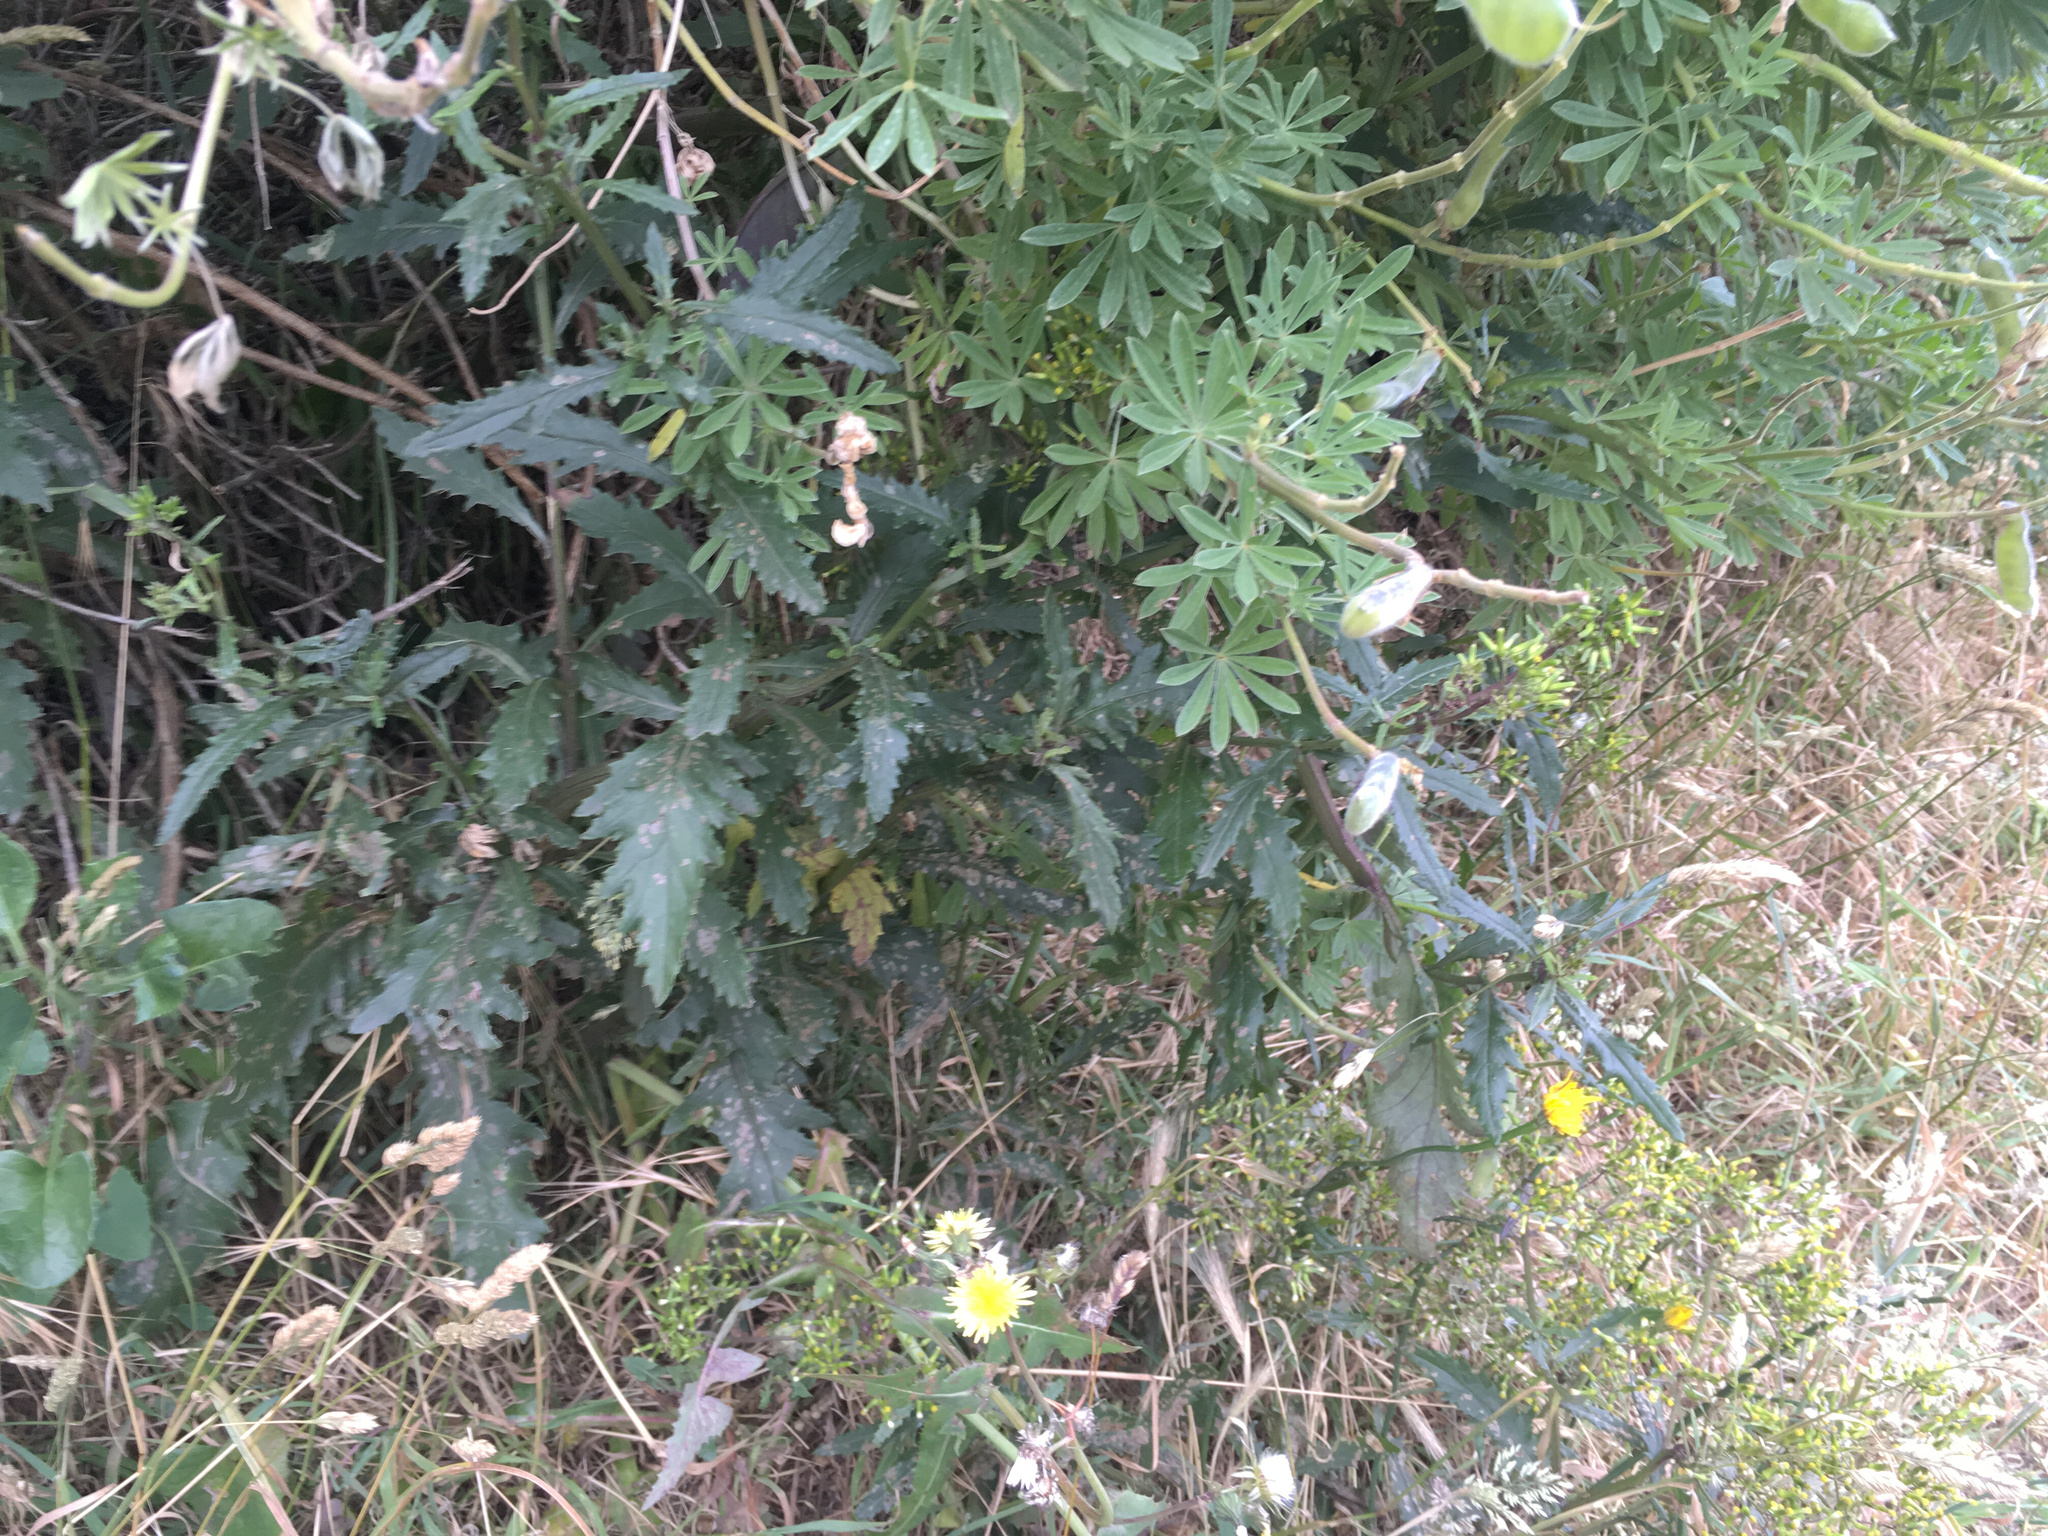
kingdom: Plantae
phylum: Tracheophyta
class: Magnoliopsida
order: Asterales
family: Asteraceae
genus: Senecio
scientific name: Senecio biserratus
